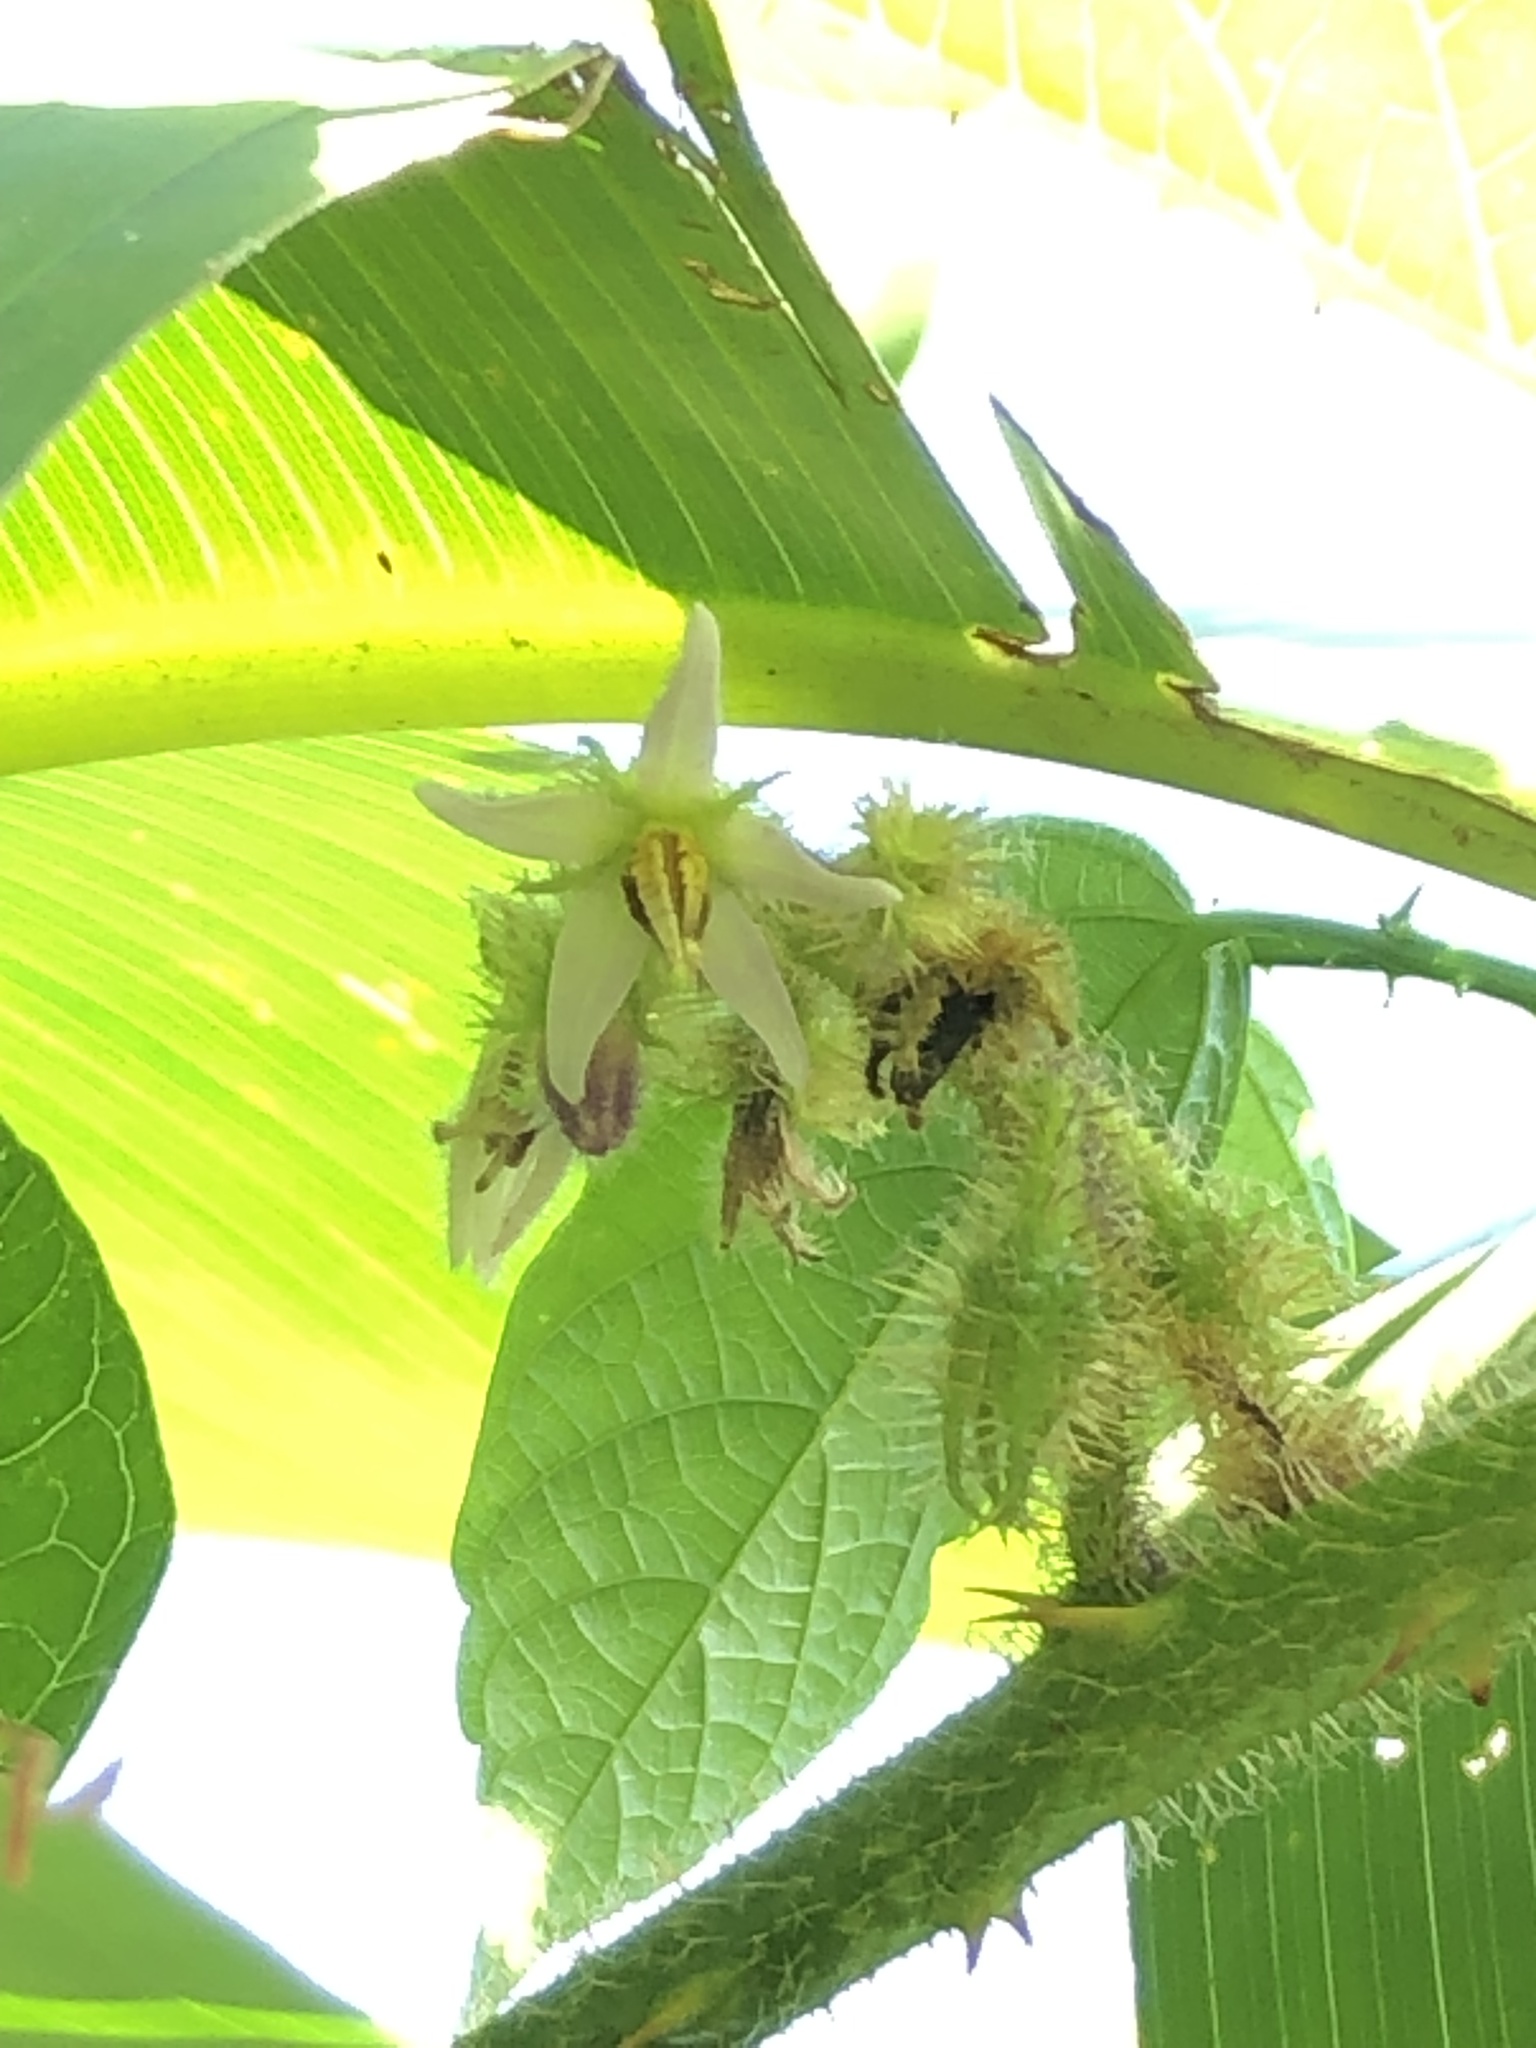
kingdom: Plantae
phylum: Tracheophyta
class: Magnoliopsida
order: Solanales
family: Solanaceae
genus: Solanum
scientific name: Solanum volubile
